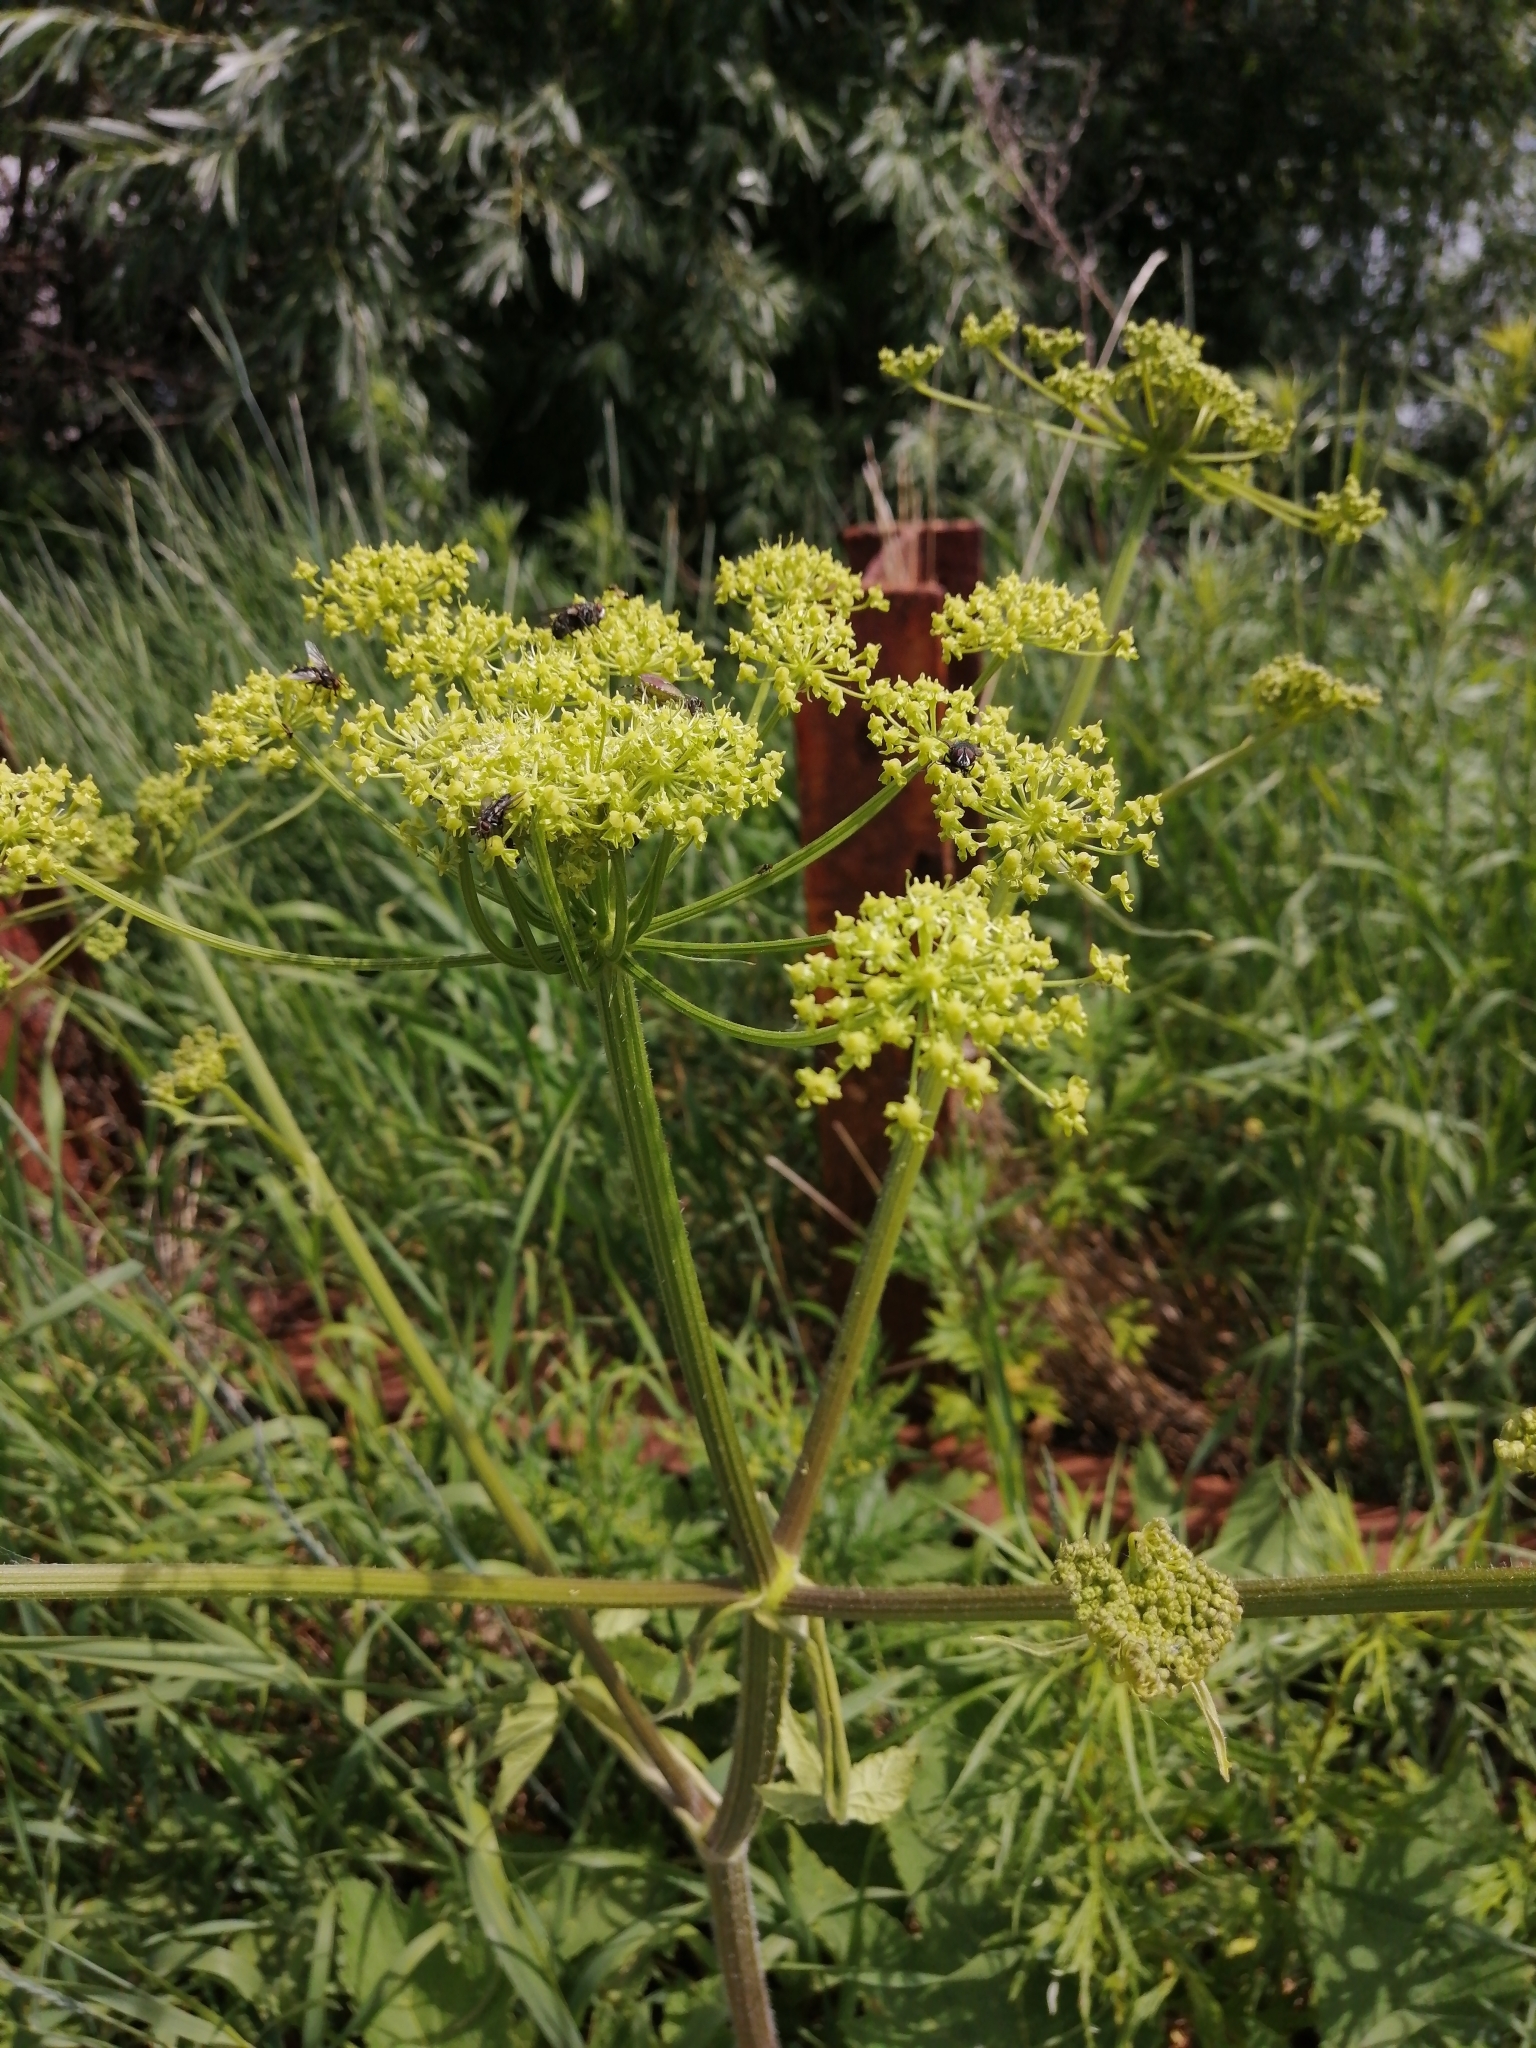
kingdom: Plantae
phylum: Tracheophyta
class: Magnoliopsida
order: Apiales
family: Apiaceae
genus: Heracleum
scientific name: Heracleum sphondylium
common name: Hogweed
